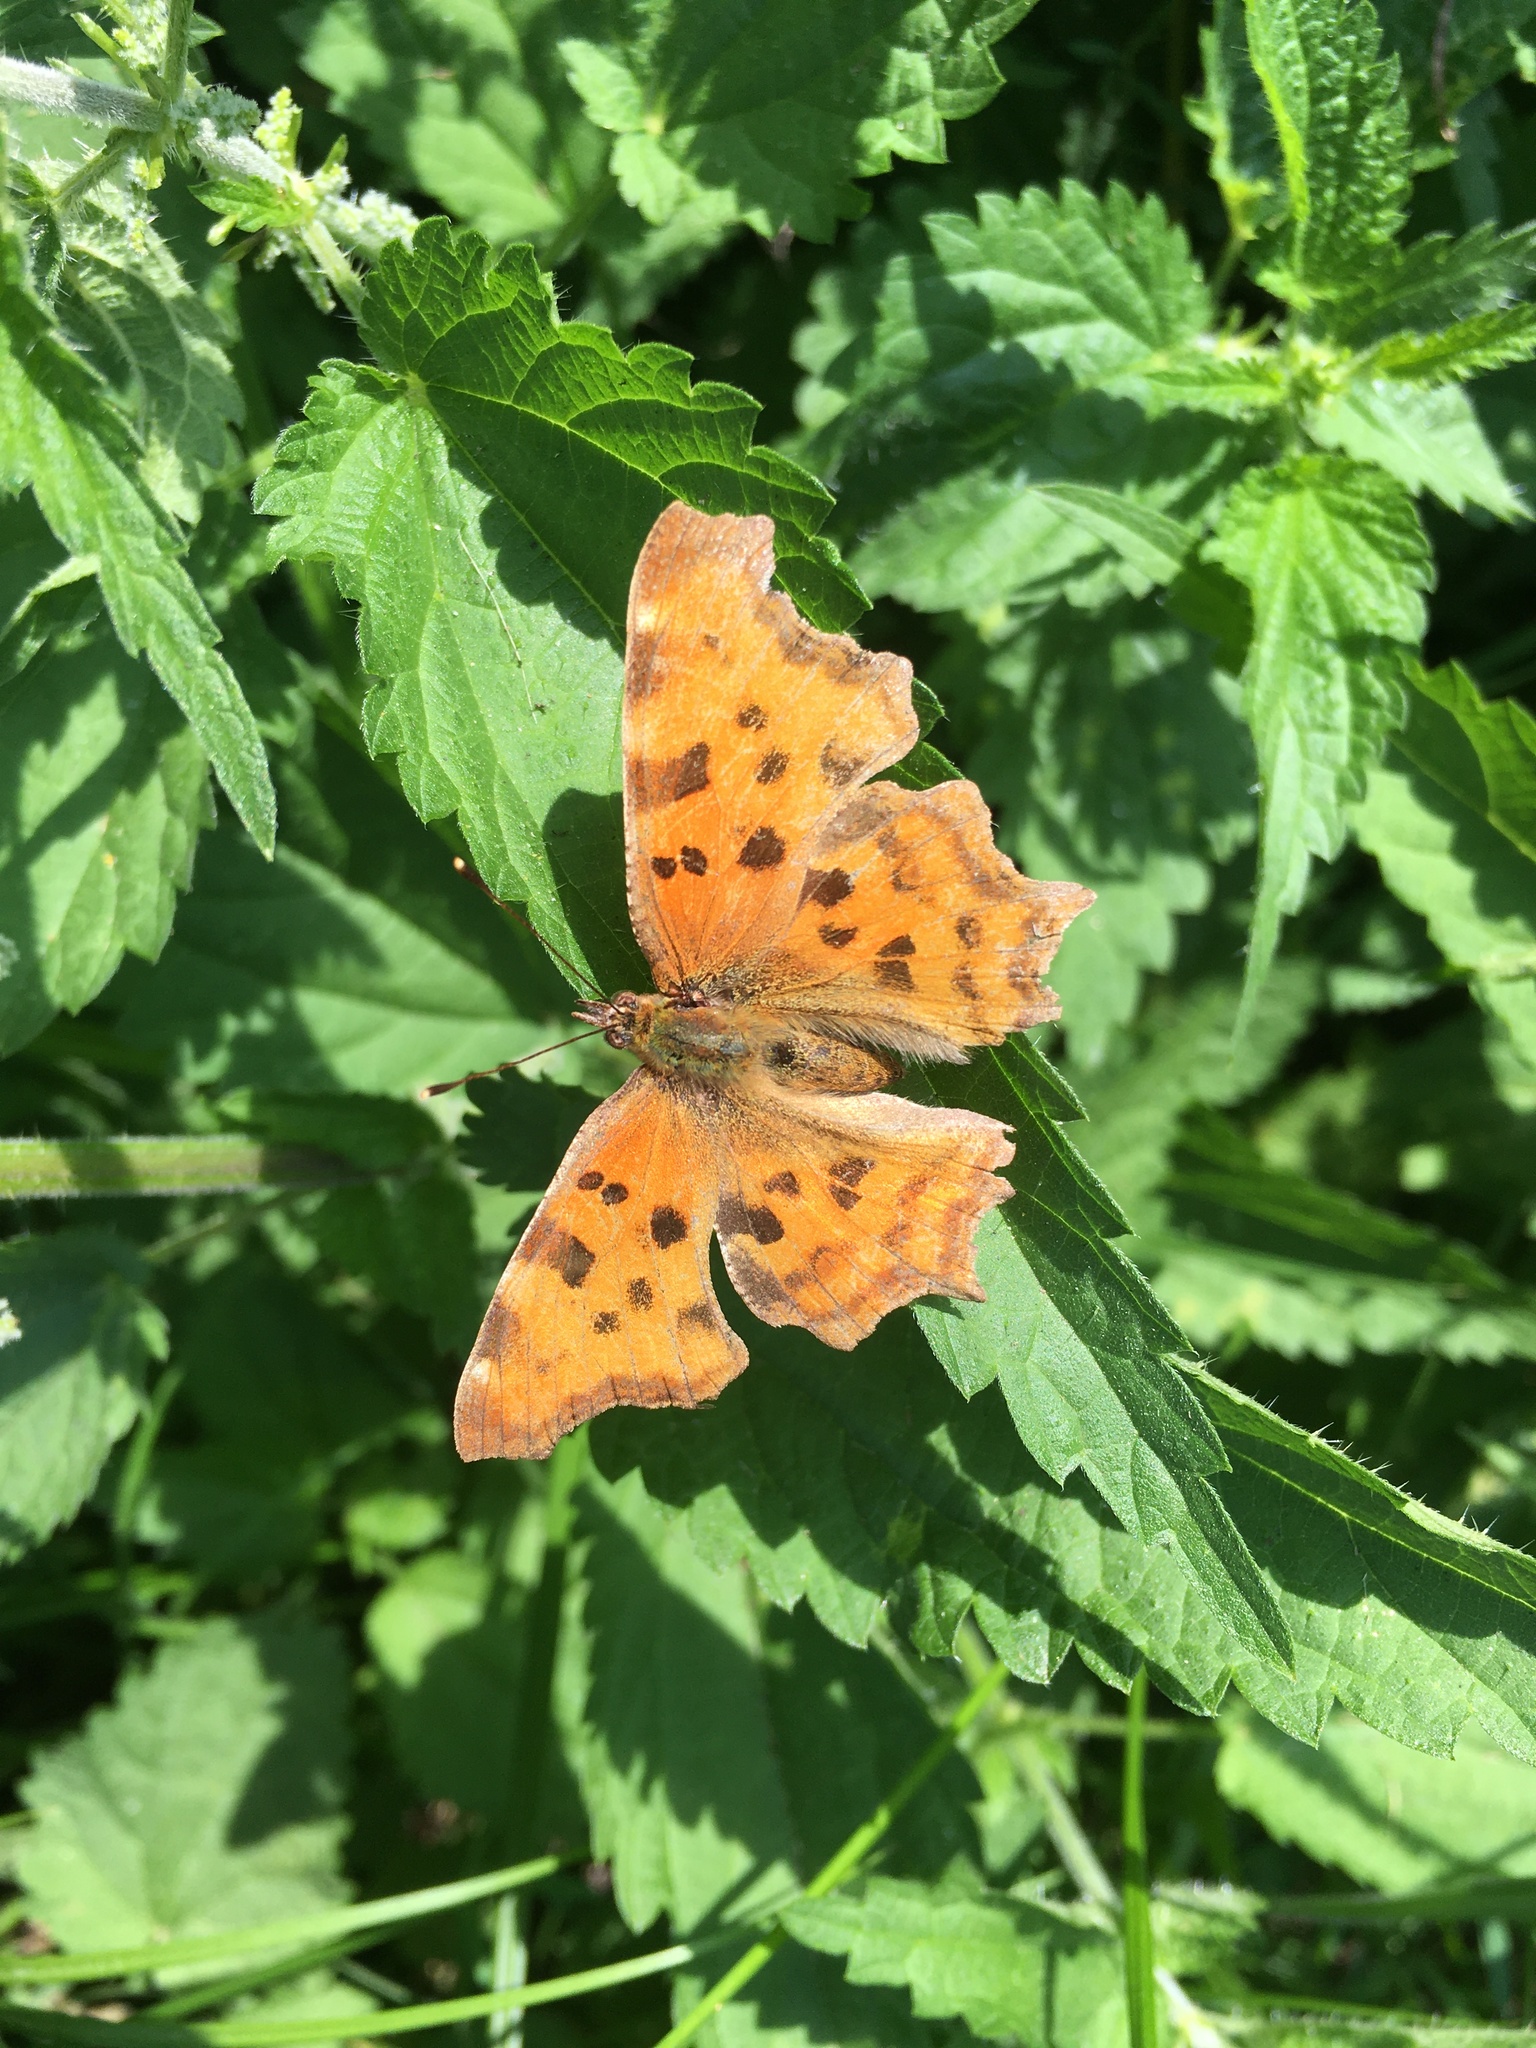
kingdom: Animalia
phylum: Arthropoda
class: Insecta
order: Lepidoptera
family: Nymphalidae
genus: Polygonia
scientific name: Polygonia c-album
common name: Comma
